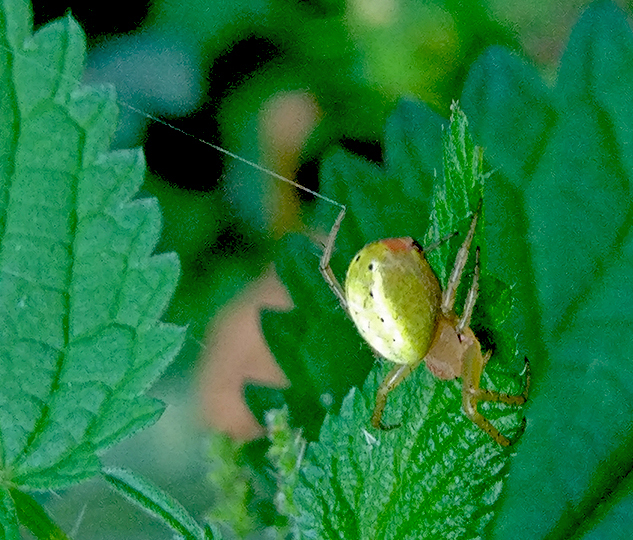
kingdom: Animalia
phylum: Arthropoda
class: Arachnida
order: Araneae
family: Araneidae
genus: Araniella
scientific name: Araniella cucurbitina
